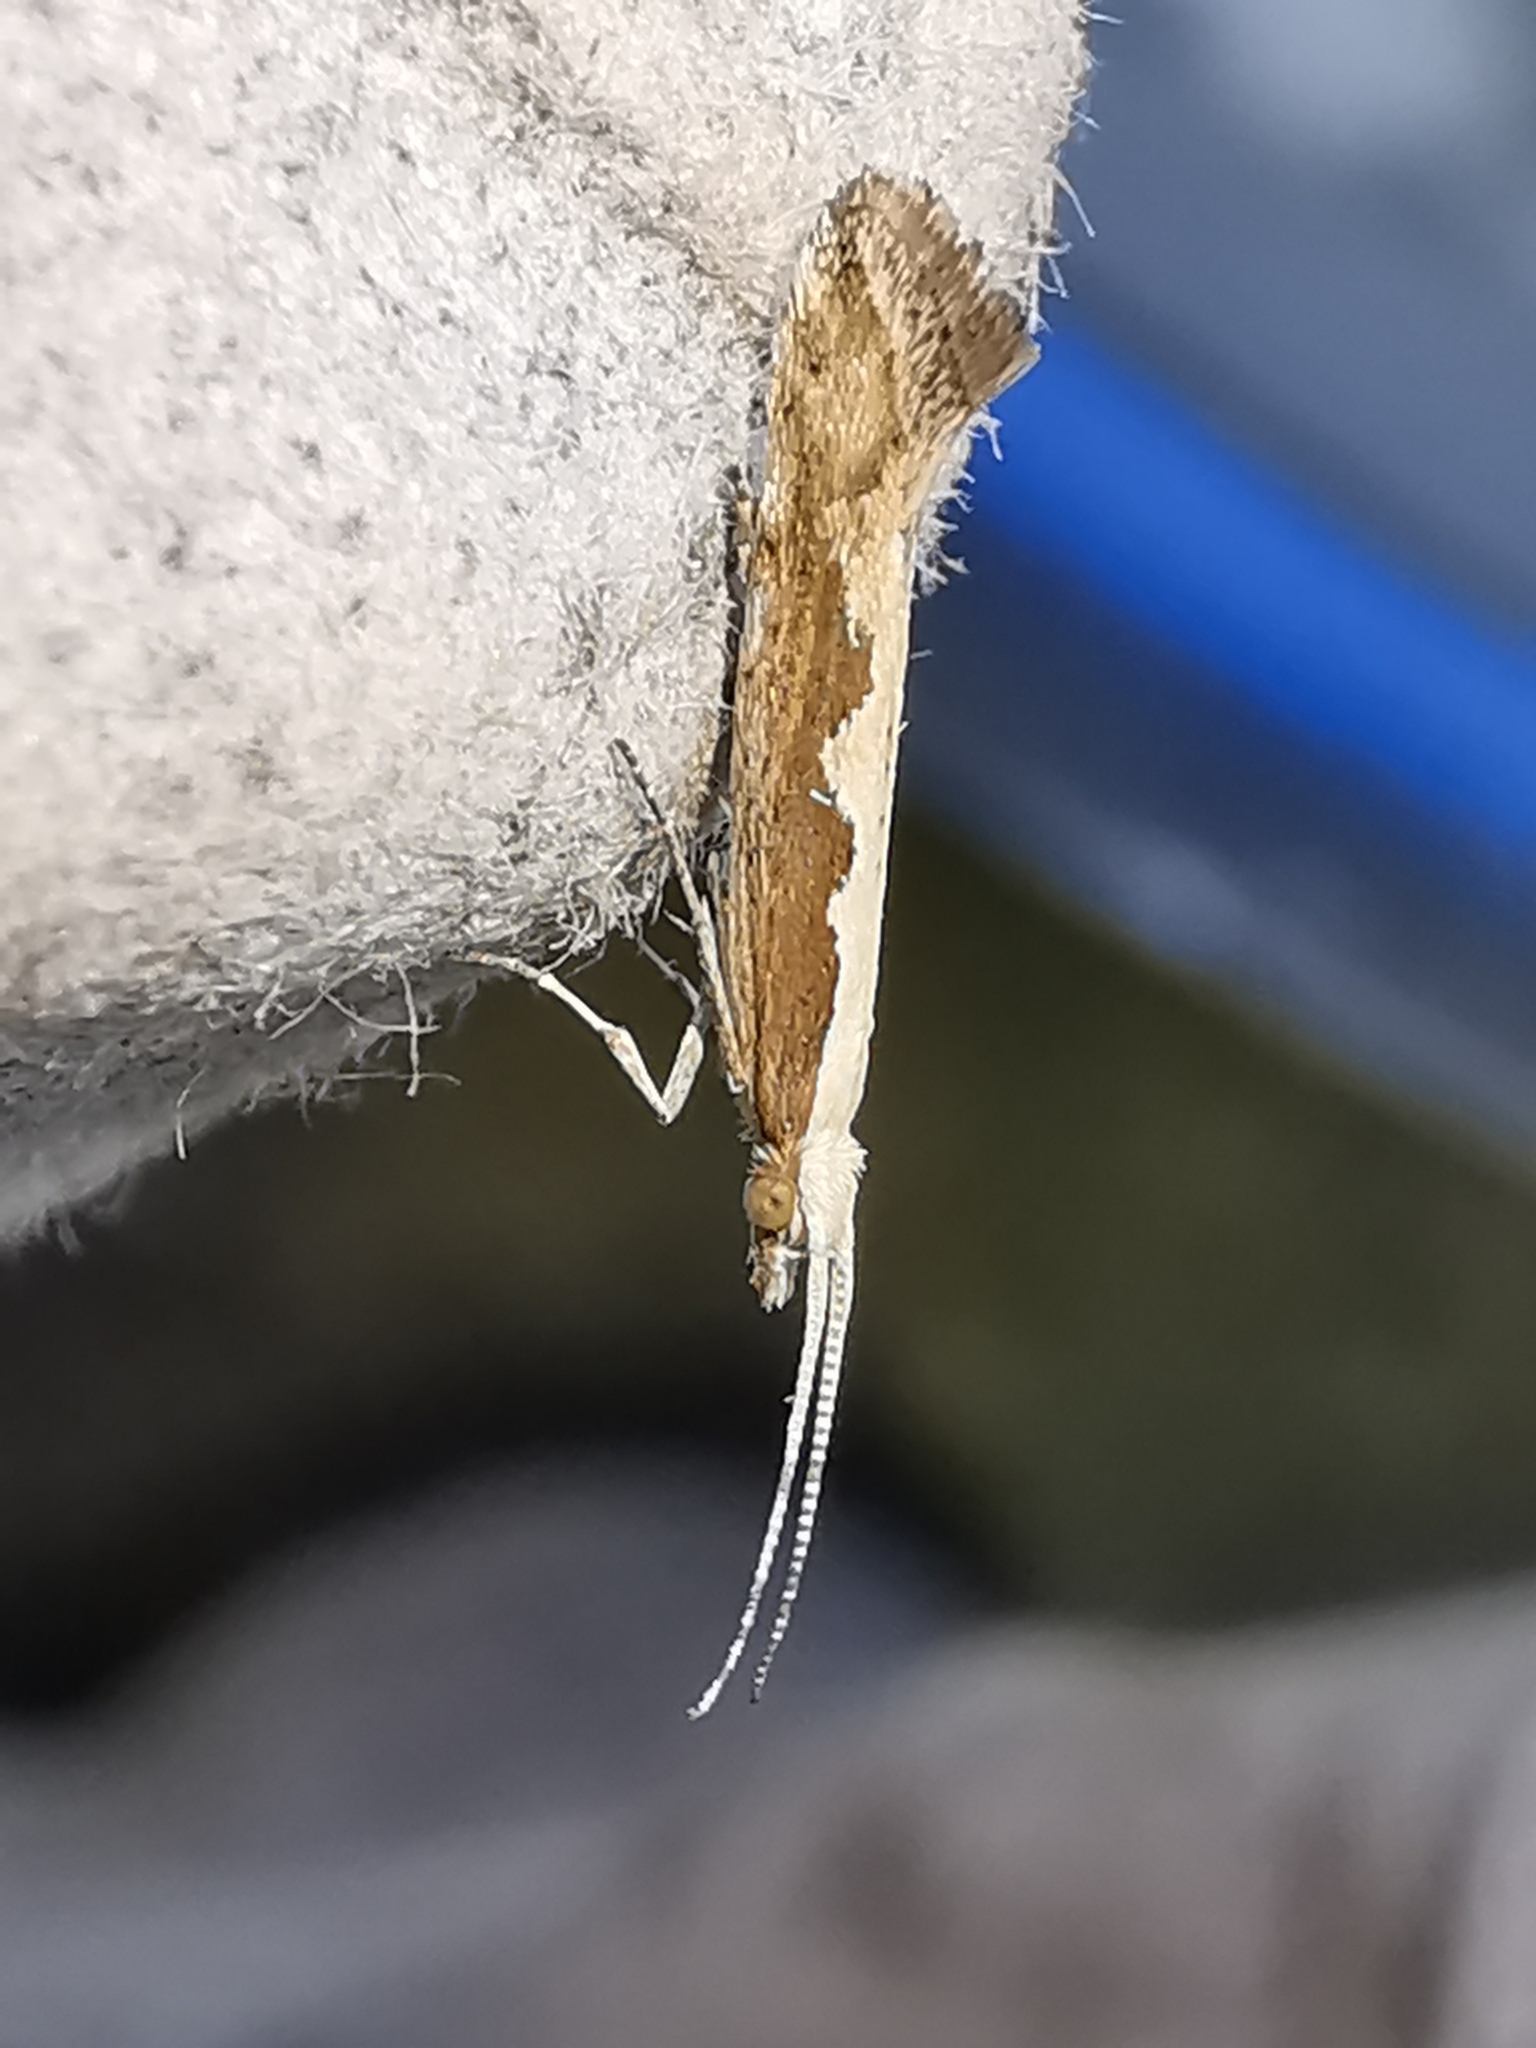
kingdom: Animalia
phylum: Arthropoda
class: Insecta
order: Lepidoptera
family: Plutellidae
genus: Plutella
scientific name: Plutella xylostella
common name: Diamond-back moth
